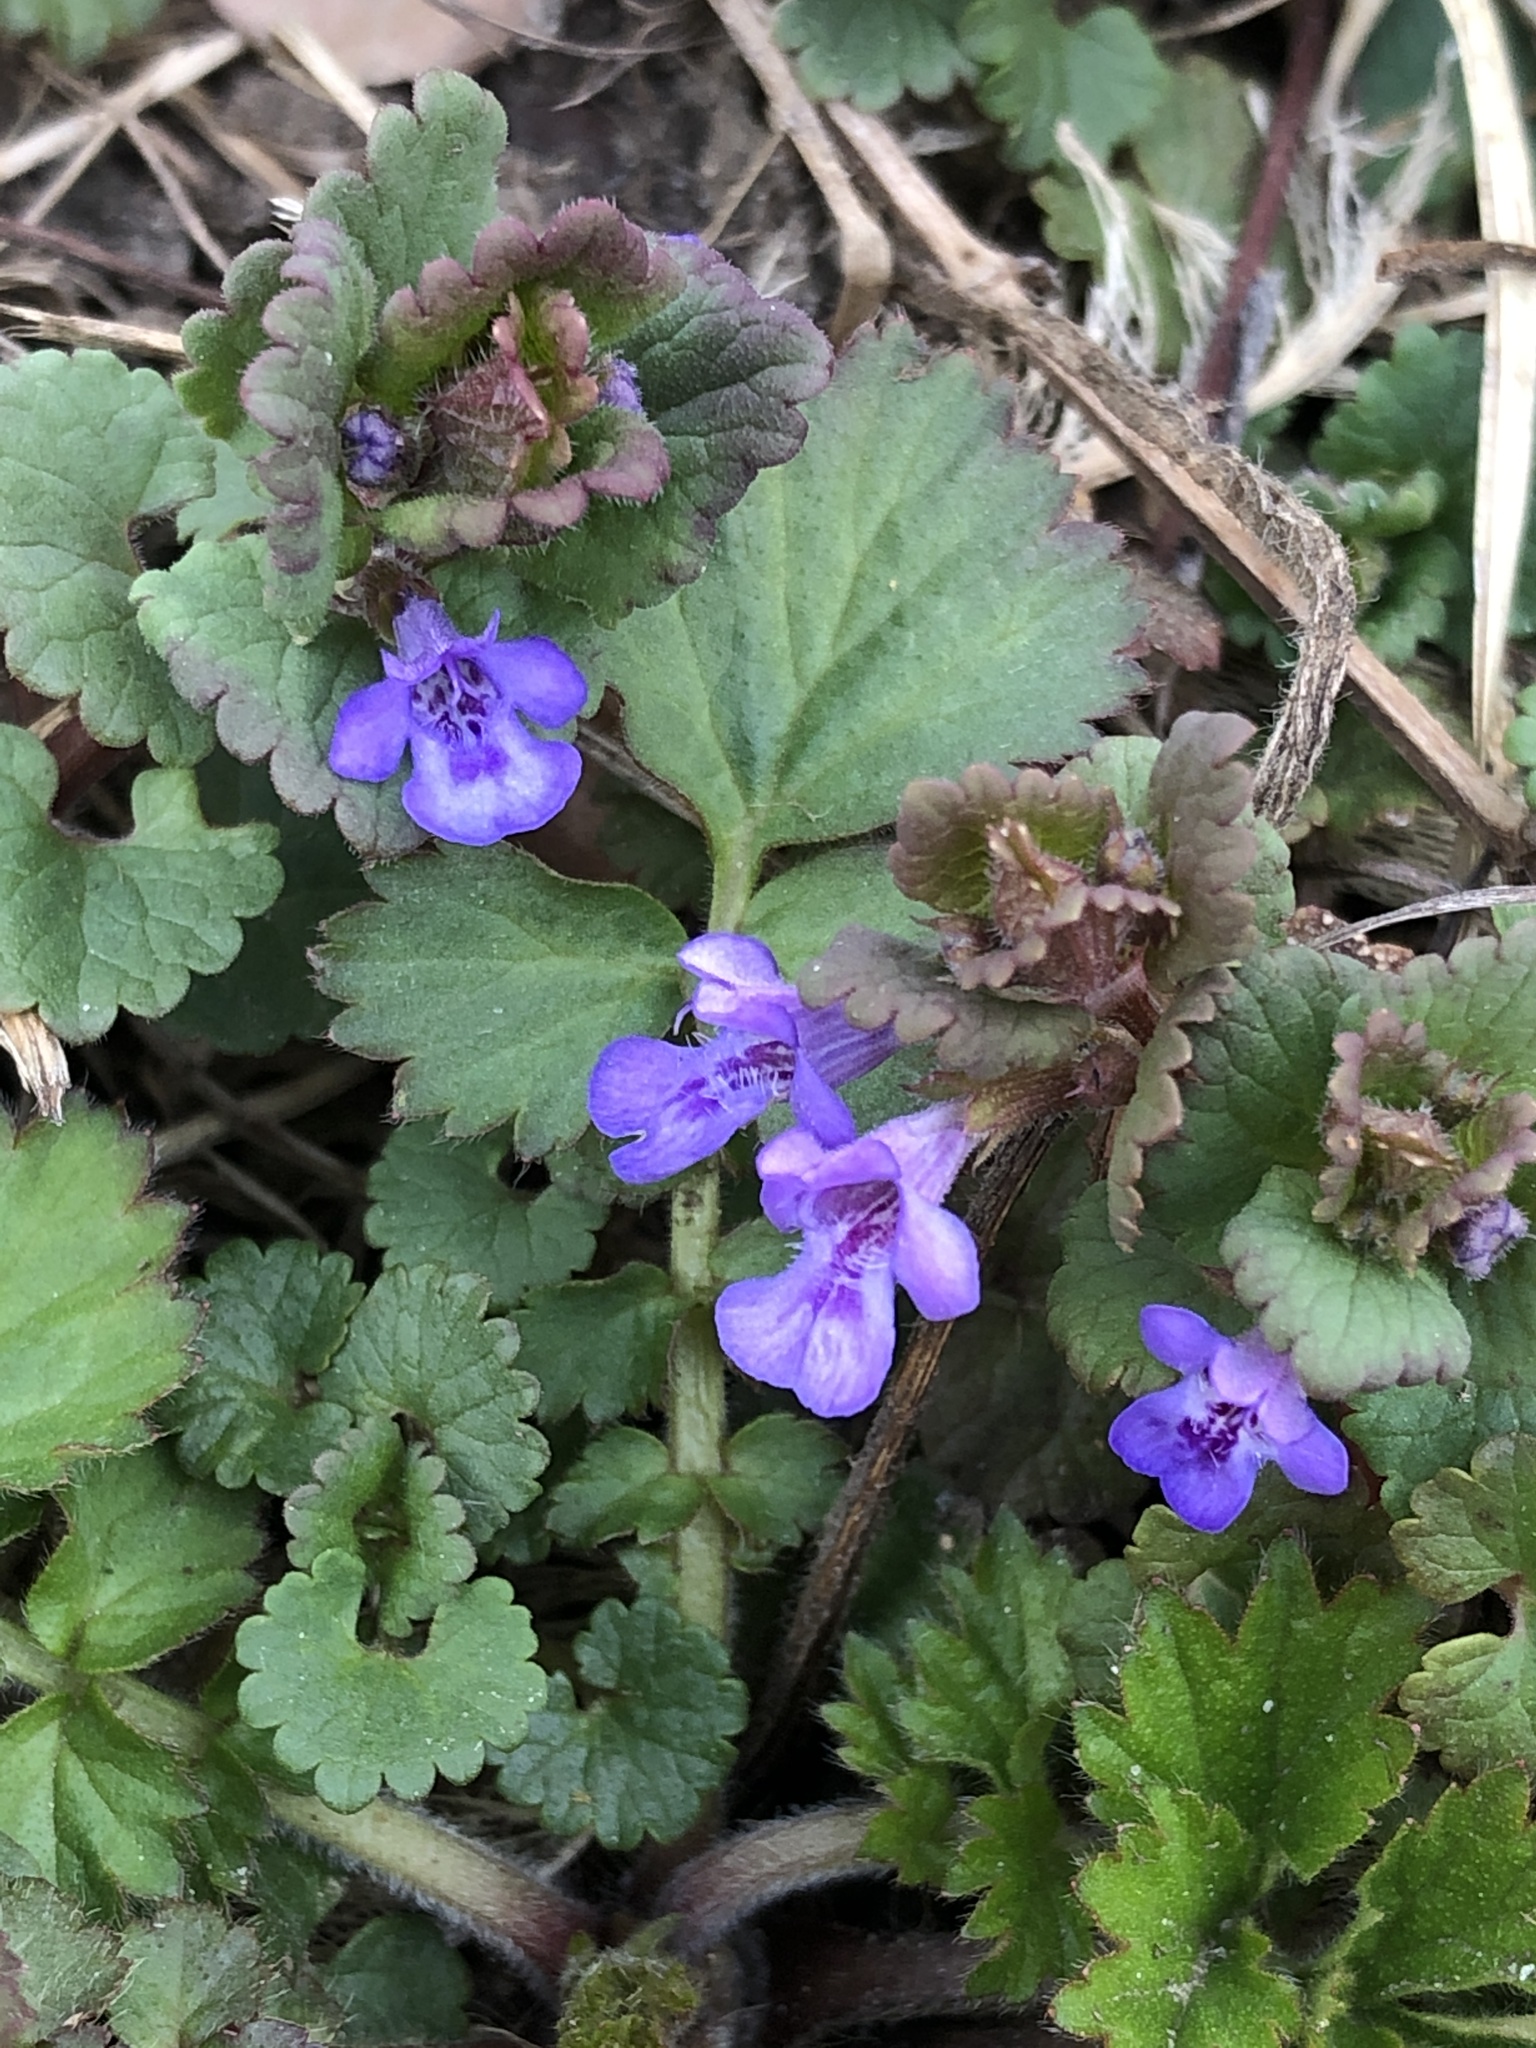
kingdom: Plantae
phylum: Tracheophyta
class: Magnoliopsida
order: Lamiales
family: Lamiaceae
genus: Glechoma
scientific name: Glechoma hederacea
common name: Ground ivy
